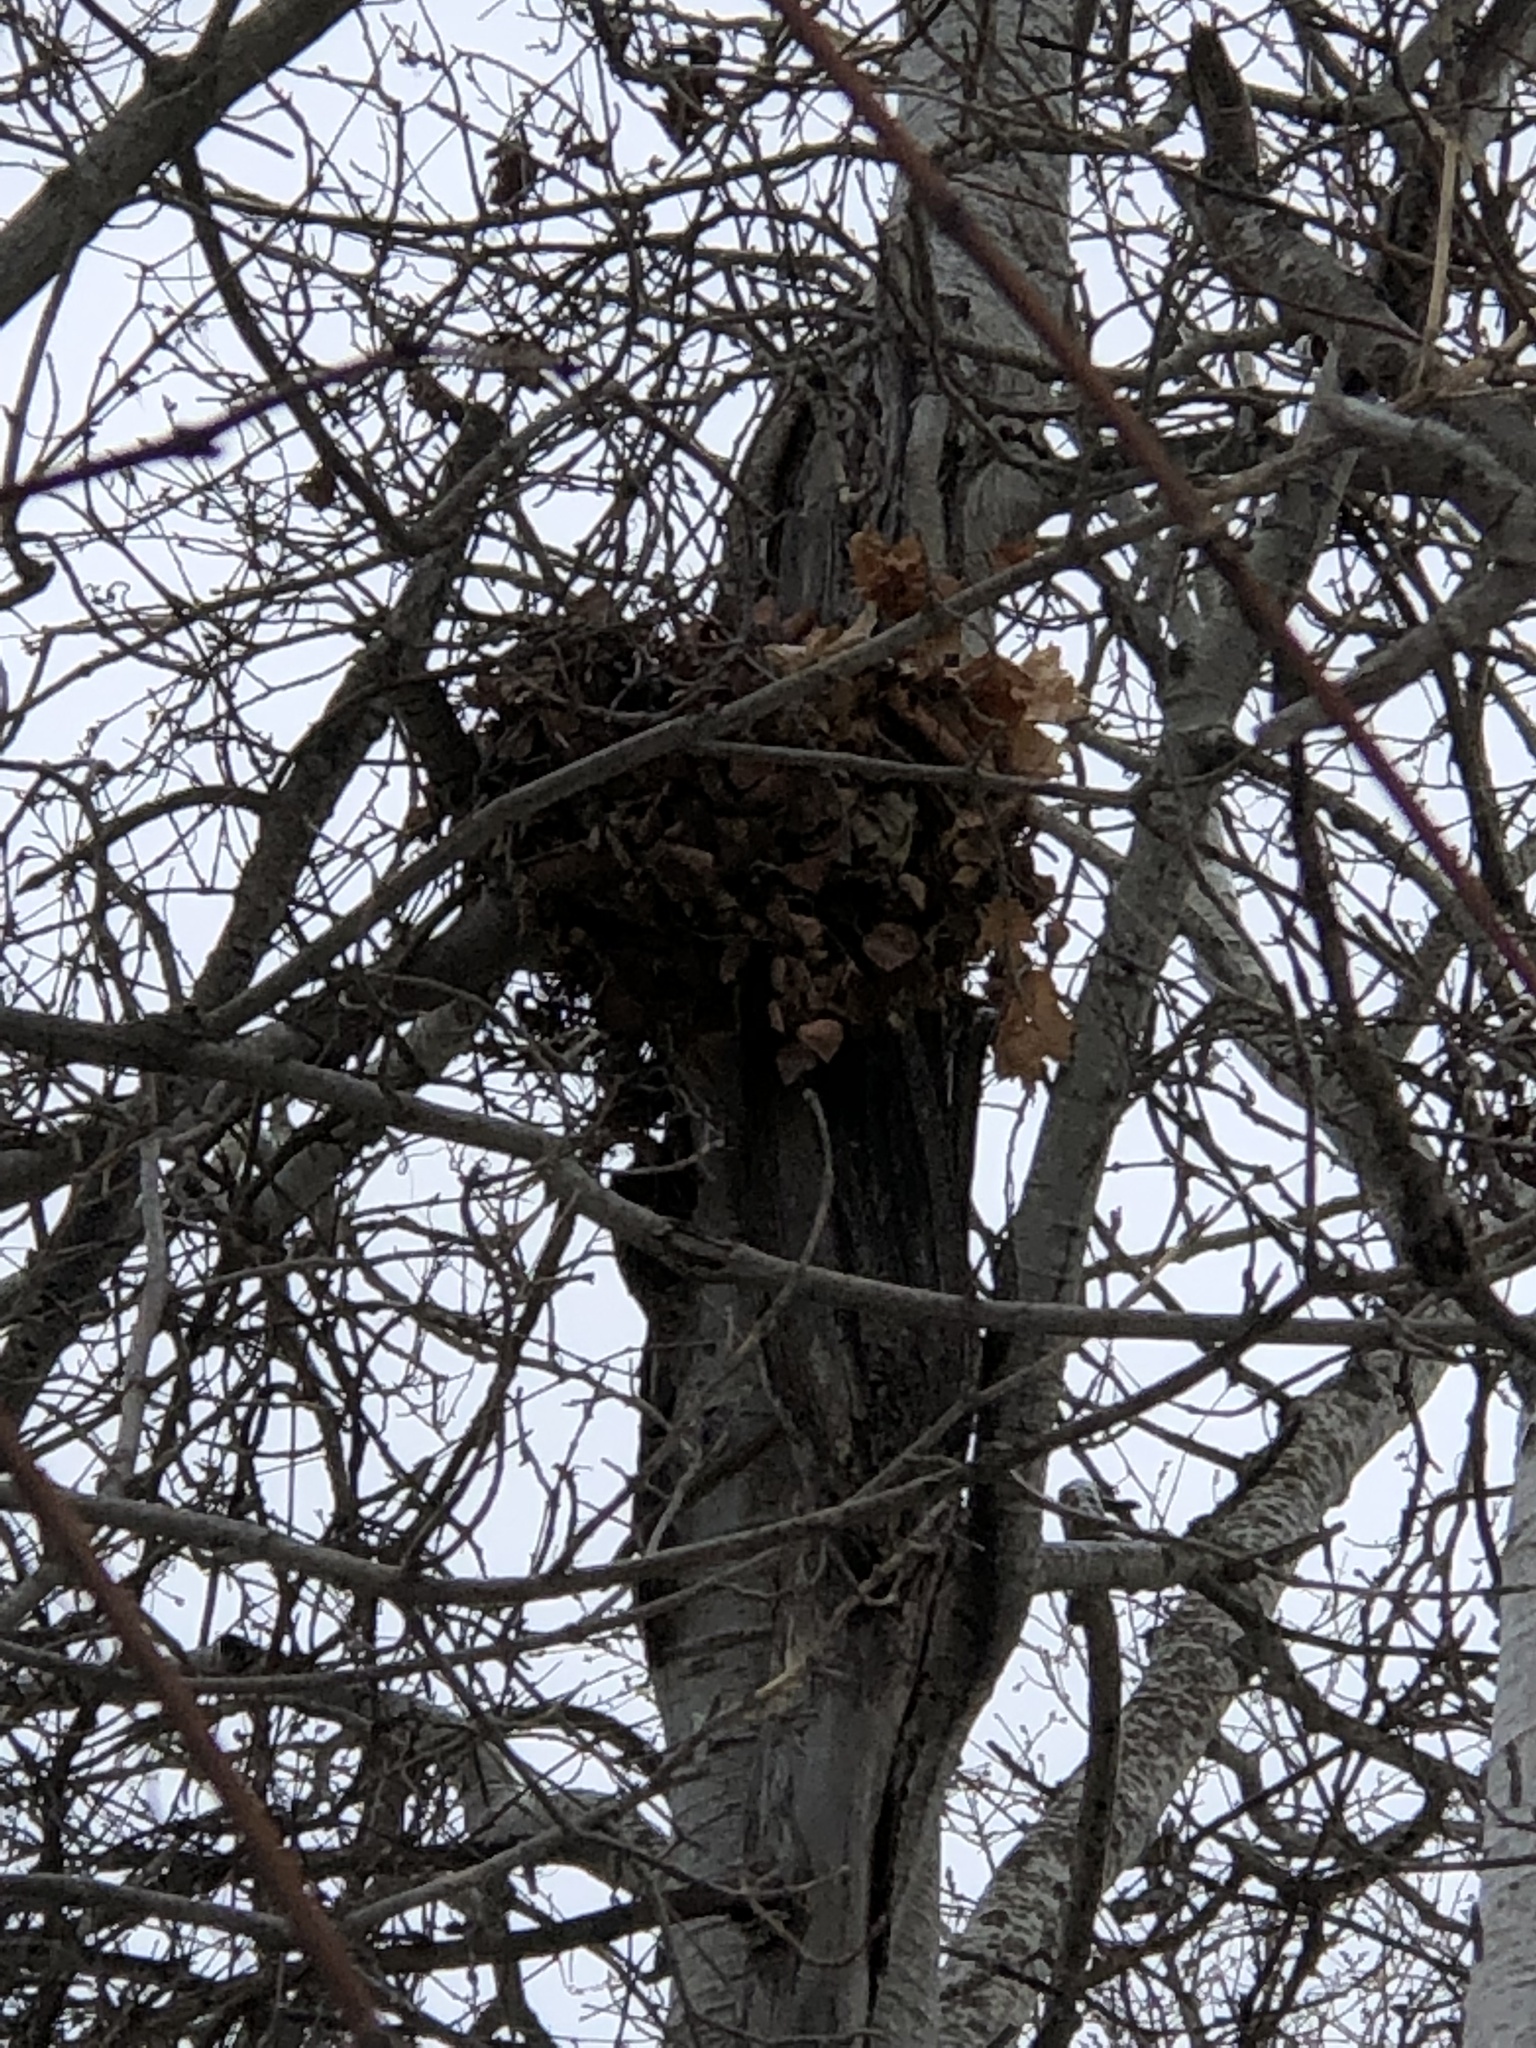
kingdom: Animalia
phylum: Chordata
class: Mammalia
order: Rodentia
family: Sciuridae
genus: Sciurus
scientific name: Sciurus carolinensis
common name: Eastern gray squirrel
